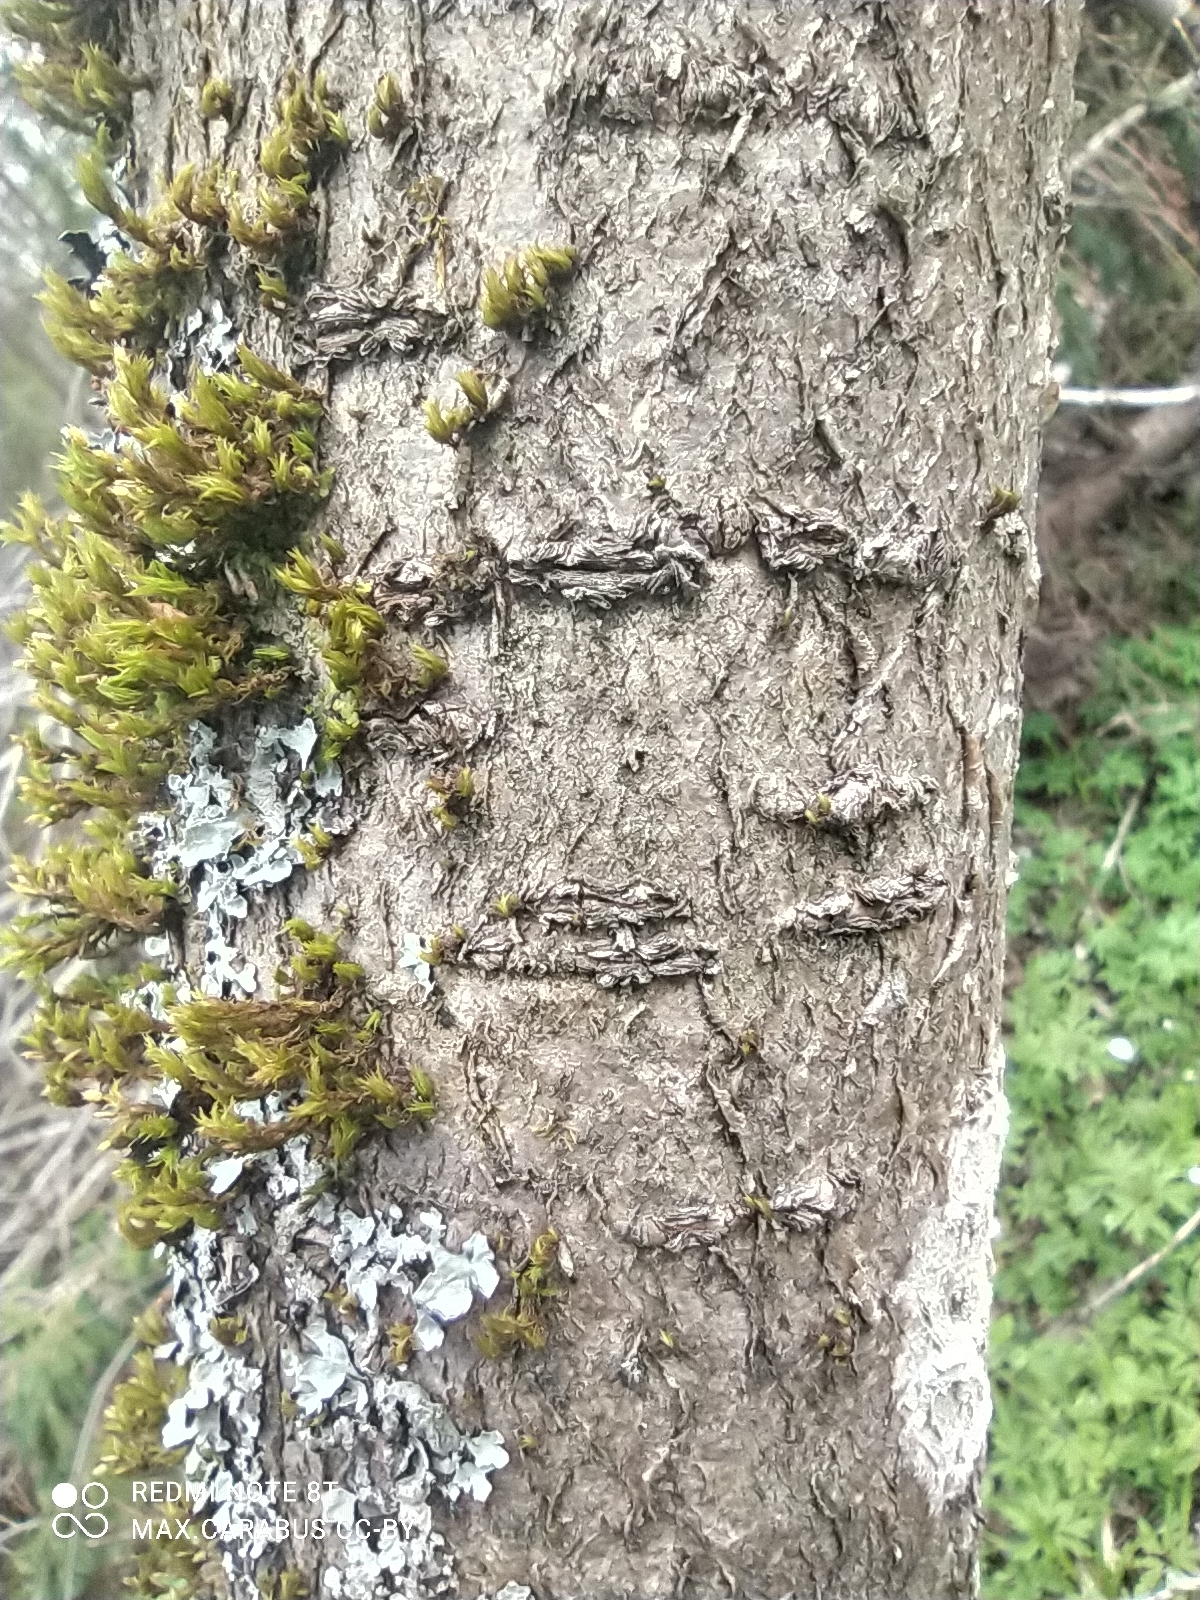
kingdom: Plantae
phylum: Tracheophyta
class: Magnoliopsida
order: Rosales
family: Rosaceae
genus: Sorbus
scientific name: Sorbus aucuparia
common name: Rowan
